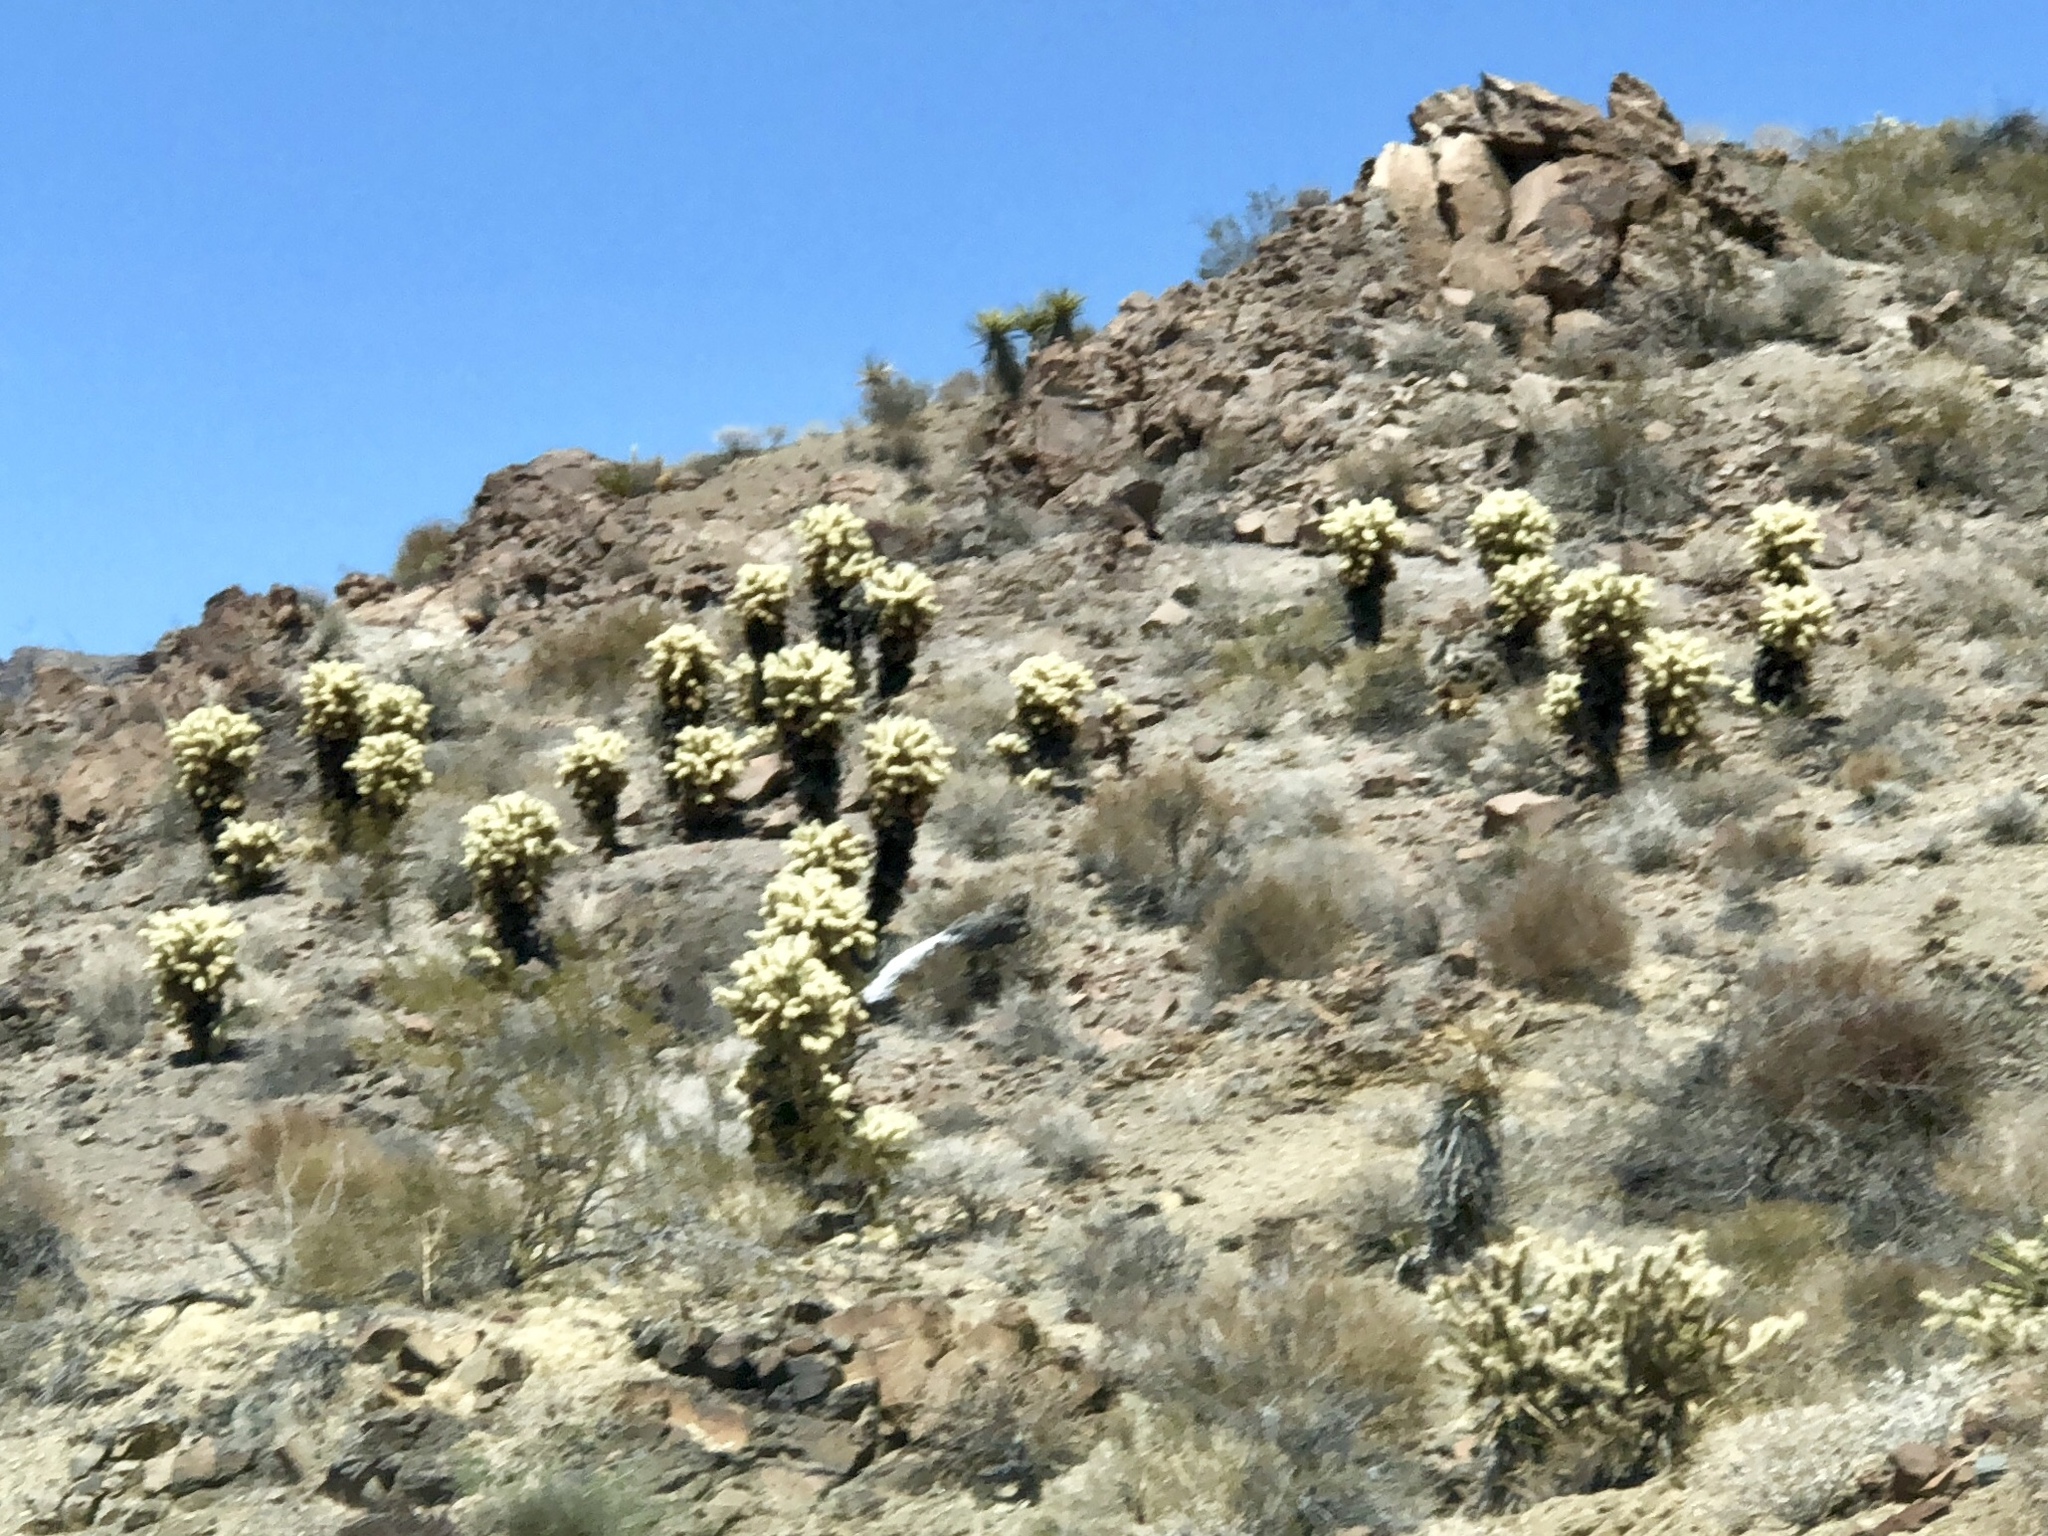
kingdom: Plantae
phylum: Tracheophyta
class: Magnoliopsida
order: Caryophyllales
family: Cactaceae
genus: Cylindropuntia
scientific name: Cylindropuntia fosbergii
